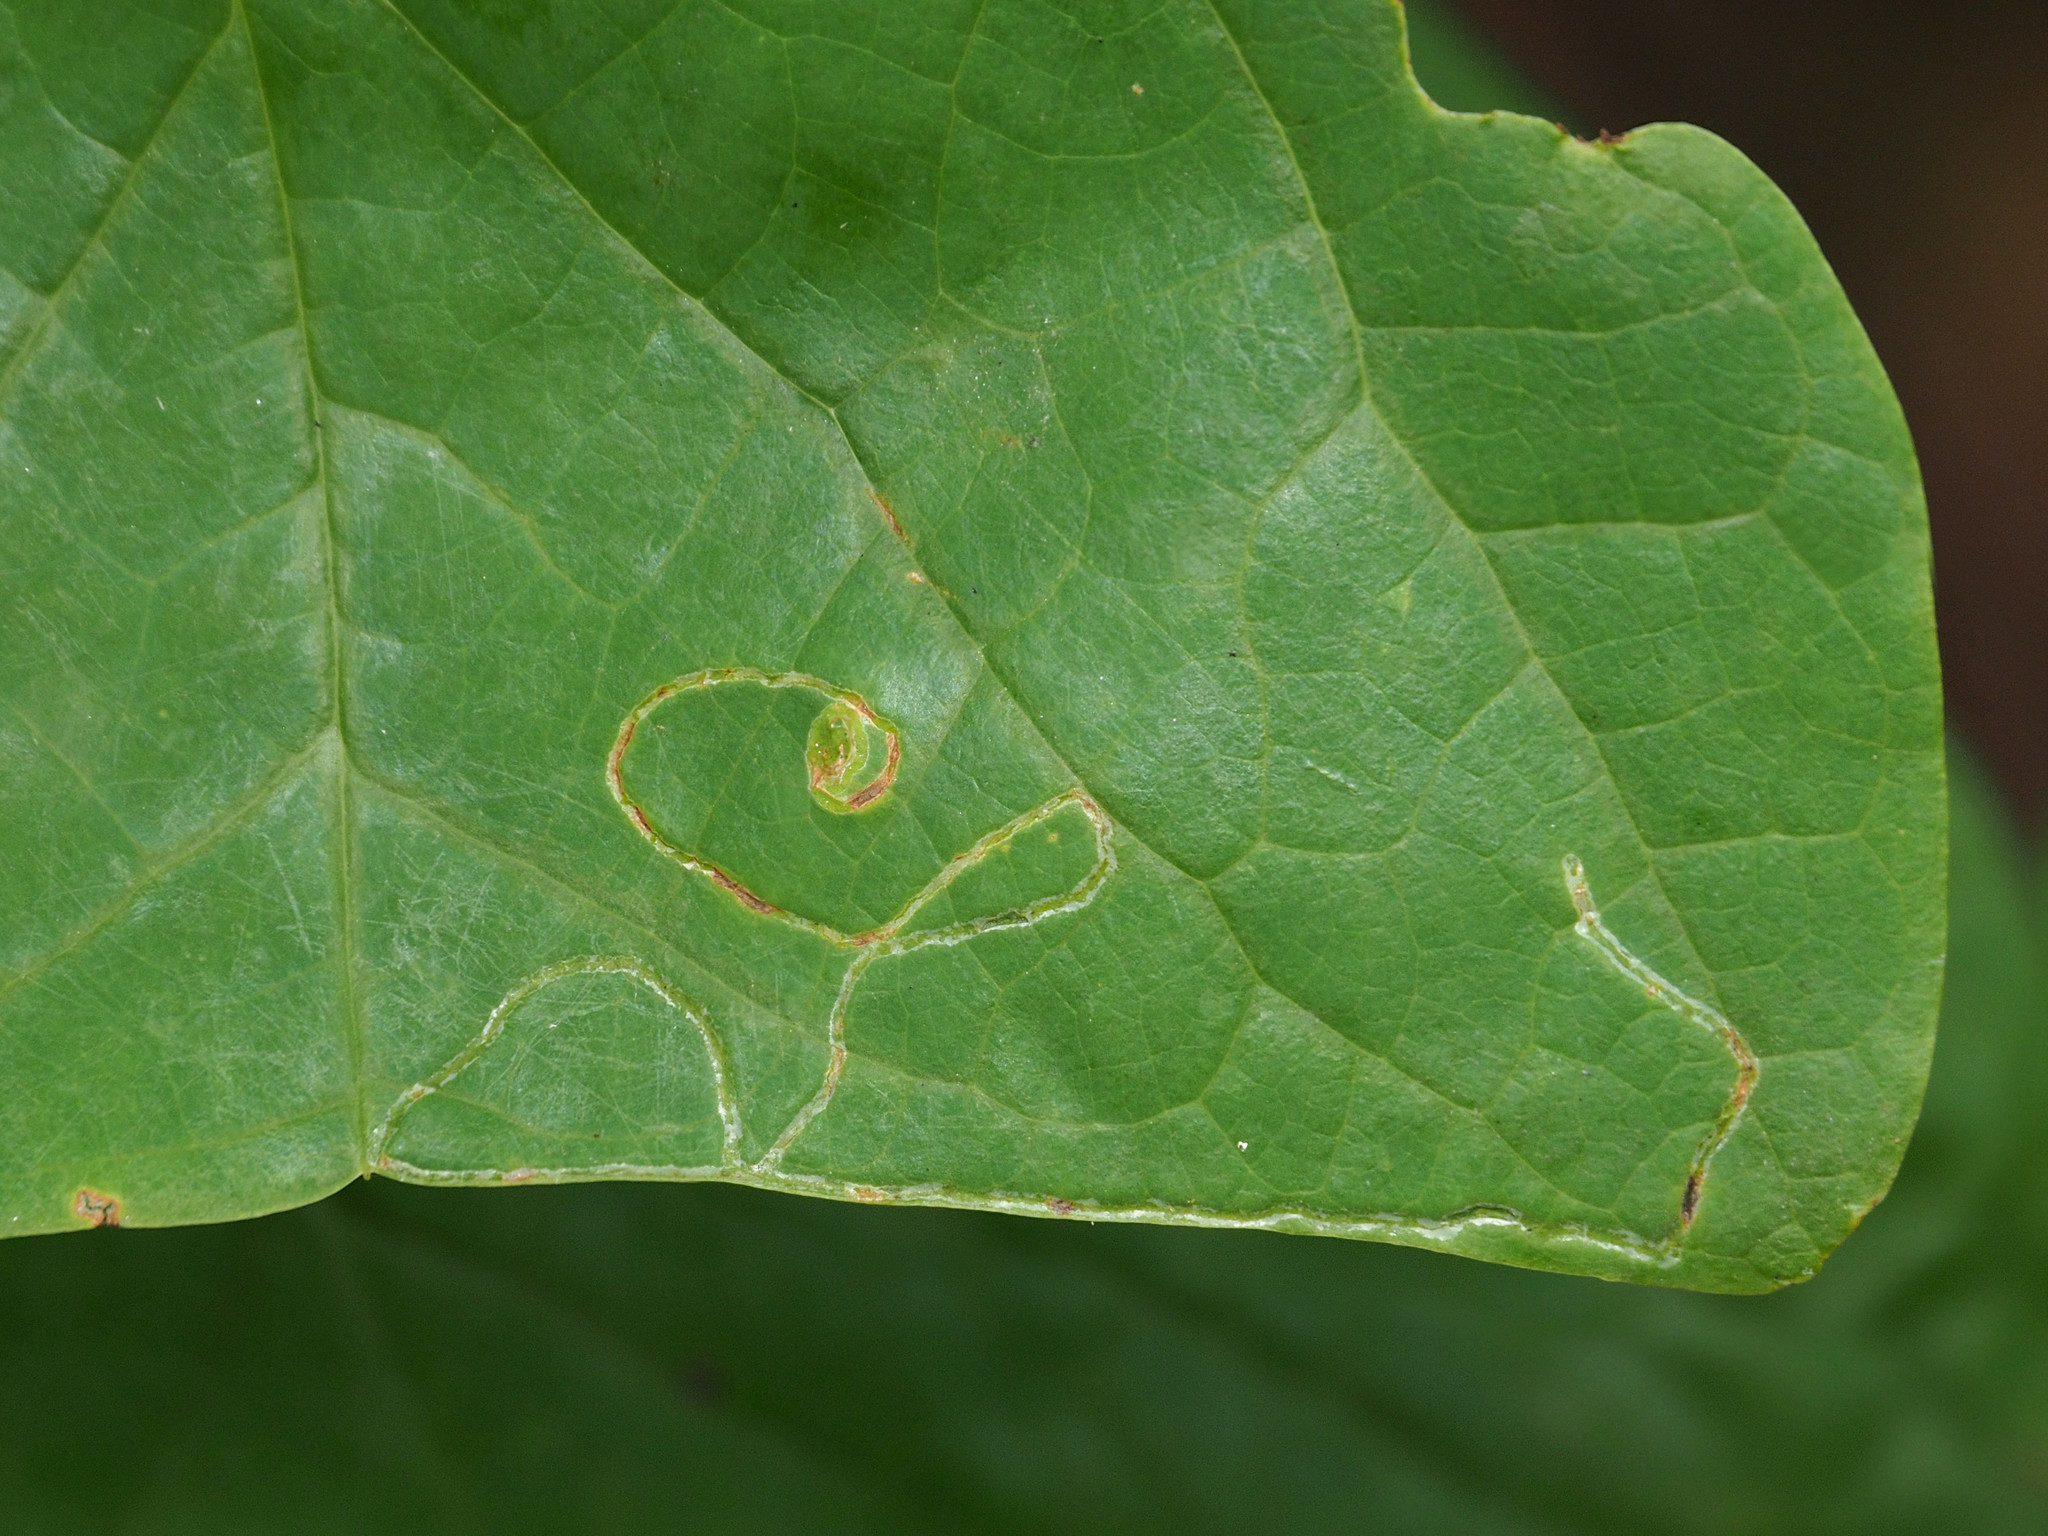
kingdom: Animalia
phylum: Arthropoda
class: Insecta
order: Lepidoptera
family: Gracillariidae
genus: Phyllocnistis
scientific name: Phyllocnistis liriodendronella
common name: Tulip tree leaf miner
